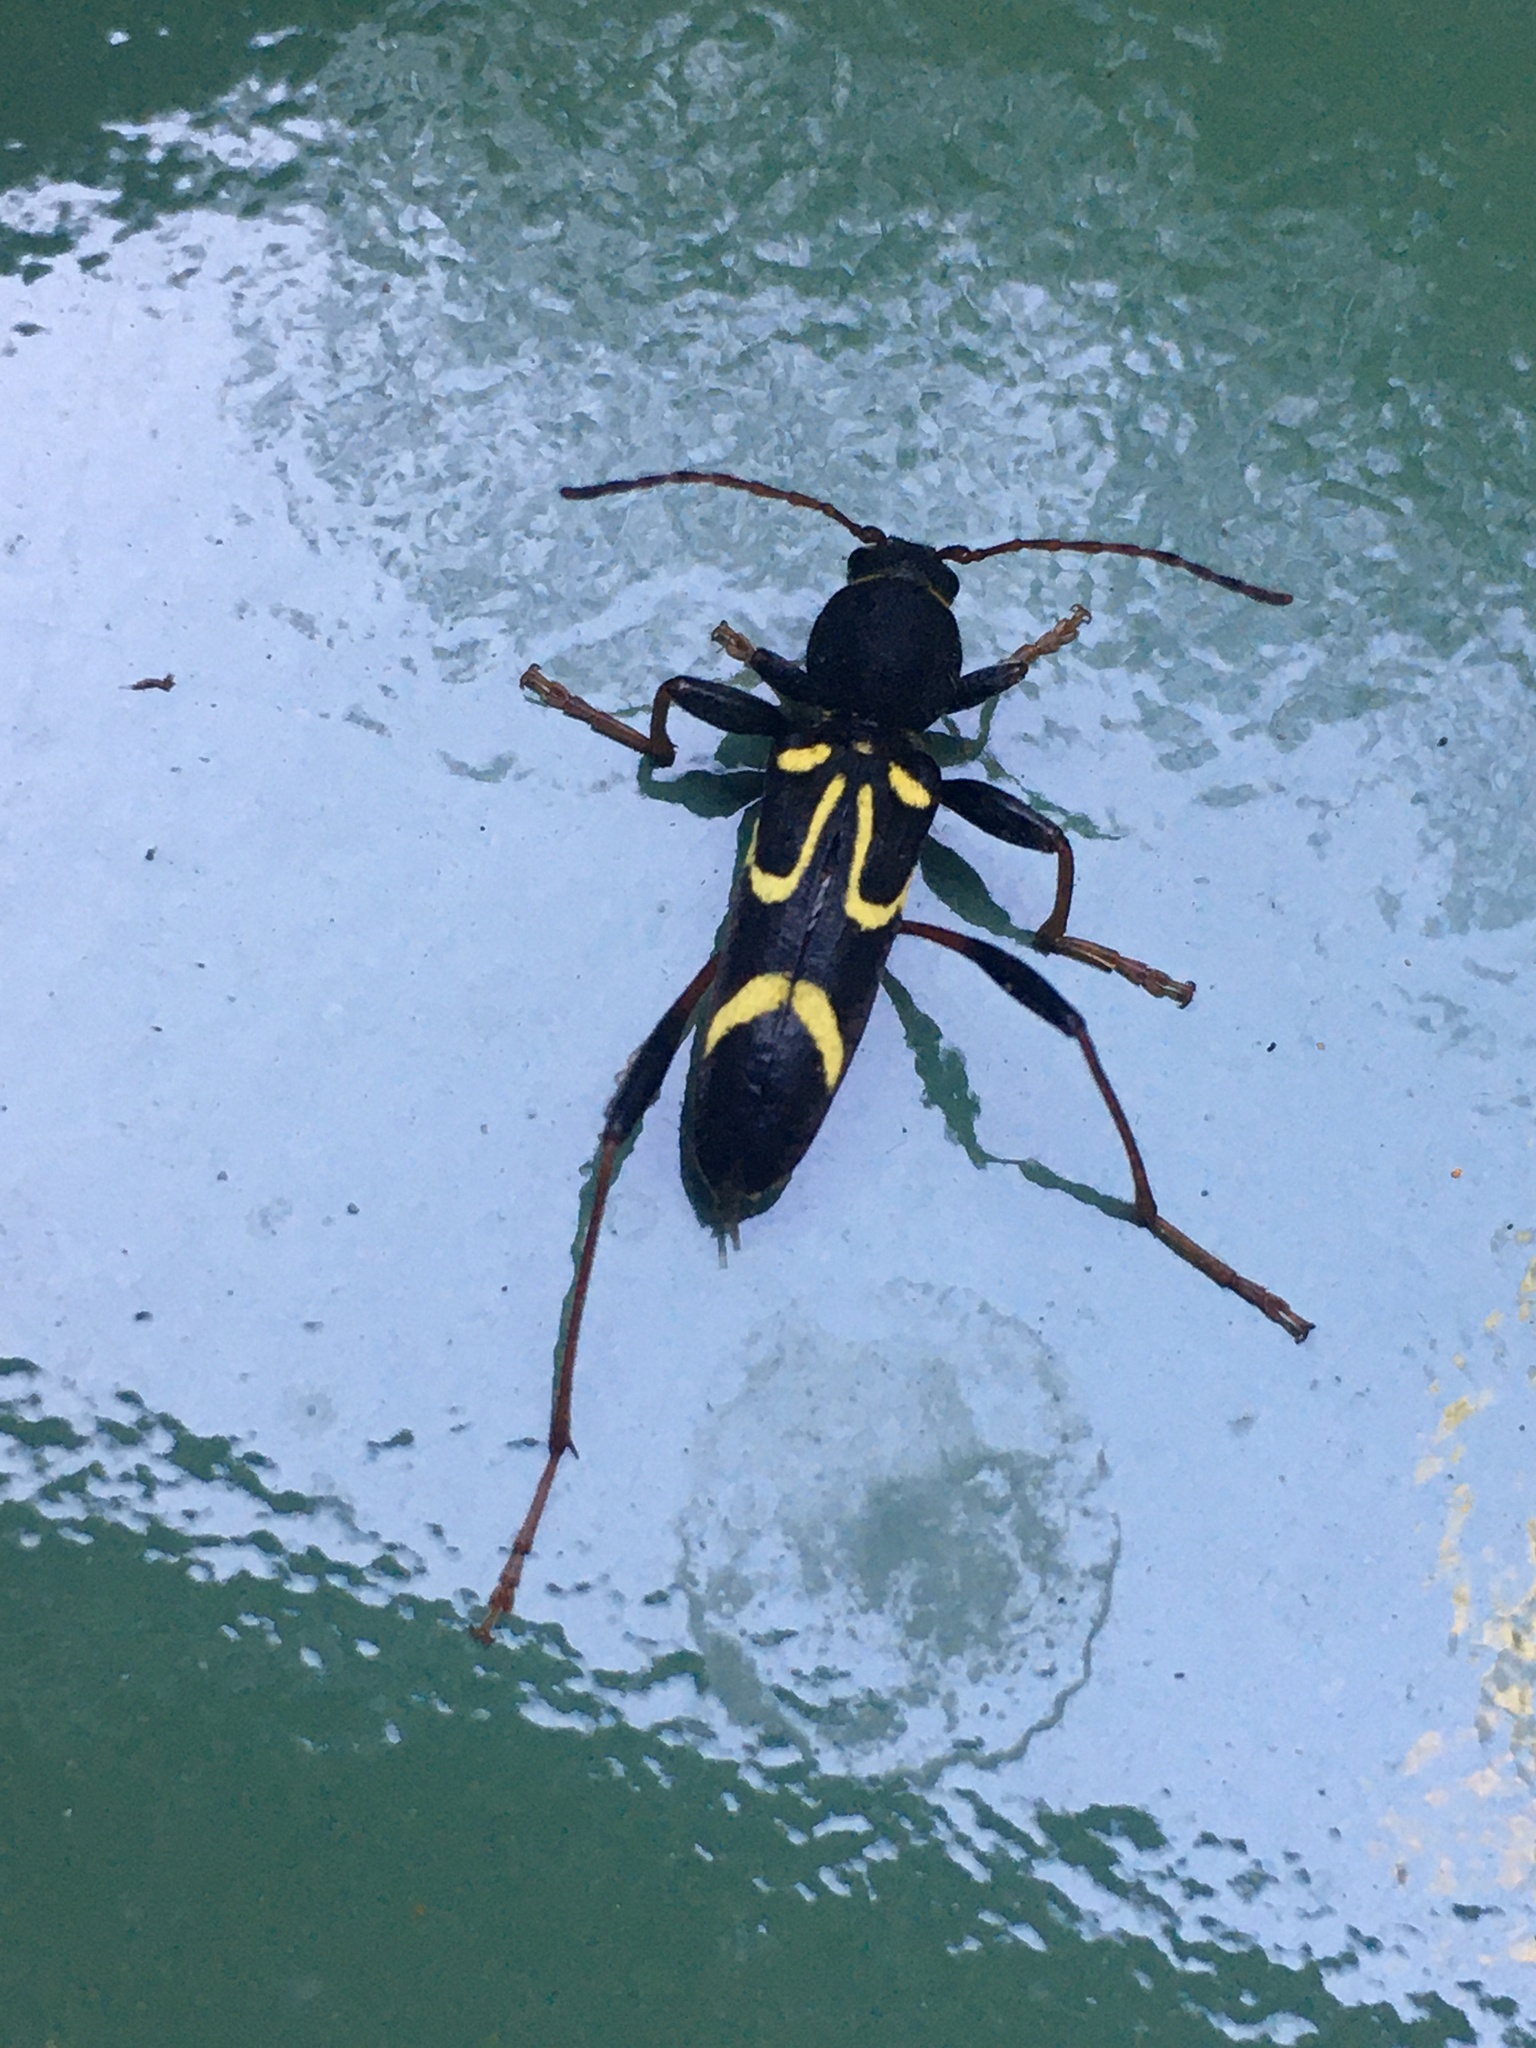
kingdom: Animalia
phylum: Arthropoda
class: Insecta
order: Coleoptera
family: Cerambycidae
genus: Clytus
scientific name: Clytus ruricola
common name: Round-necked longhorn beetle
